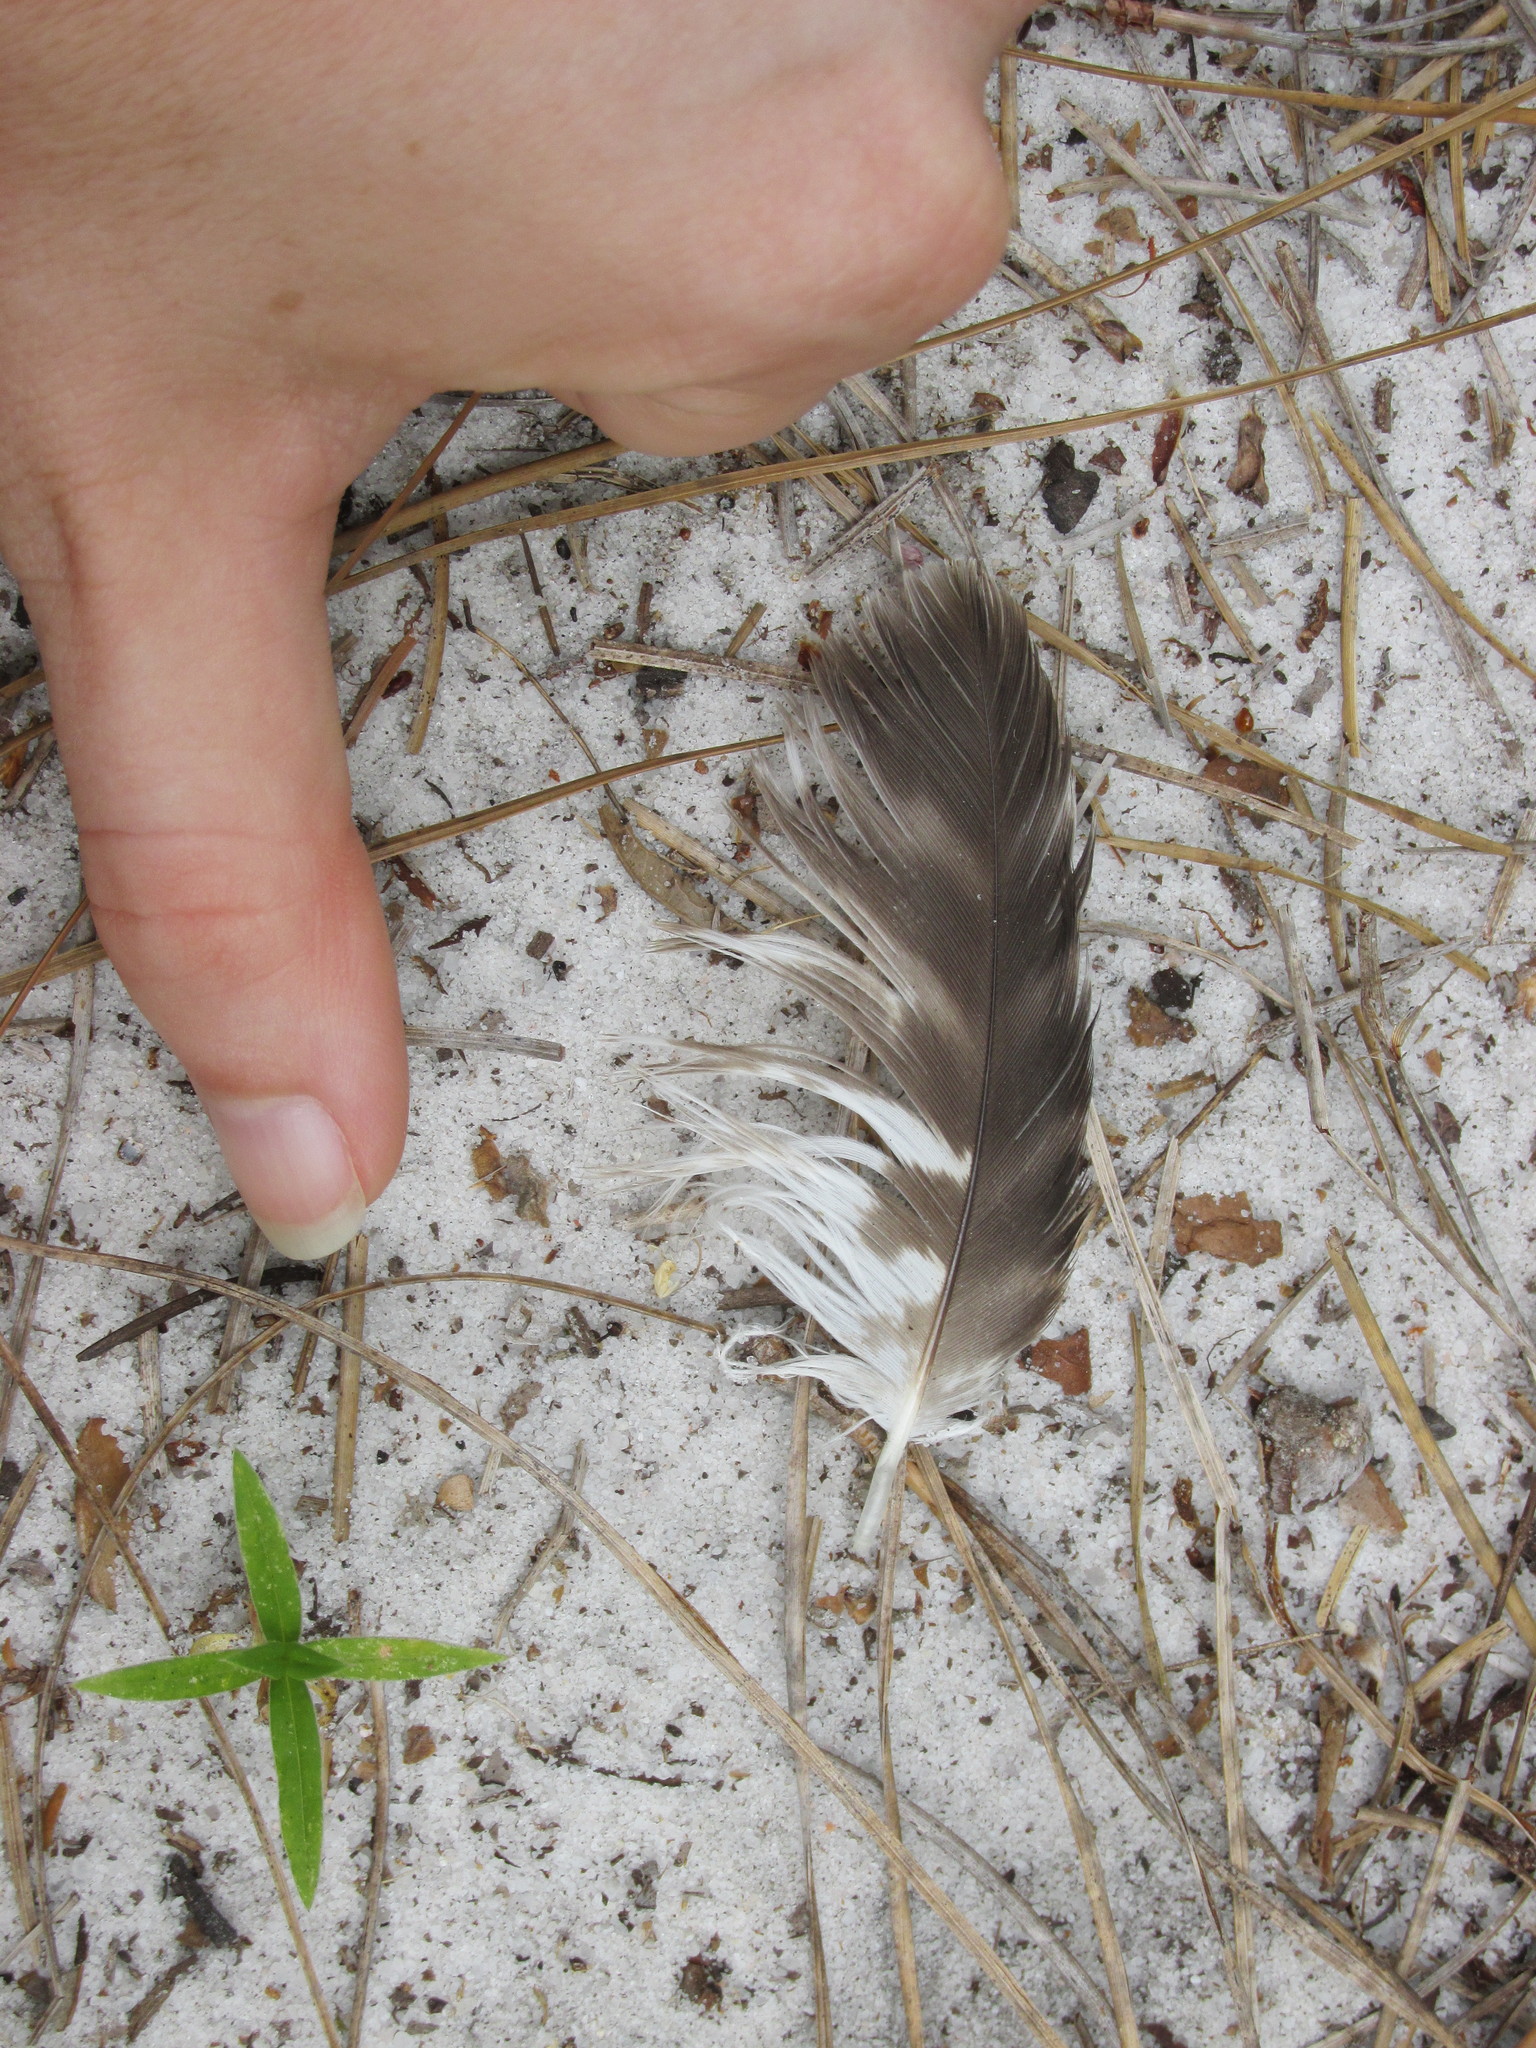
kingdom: Animalia
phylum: Chordata
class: Aves
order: Accipitriformes
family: Accipitridae
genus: Buteo
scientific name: Buteo lineatus
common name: Red-shouldered hawk
